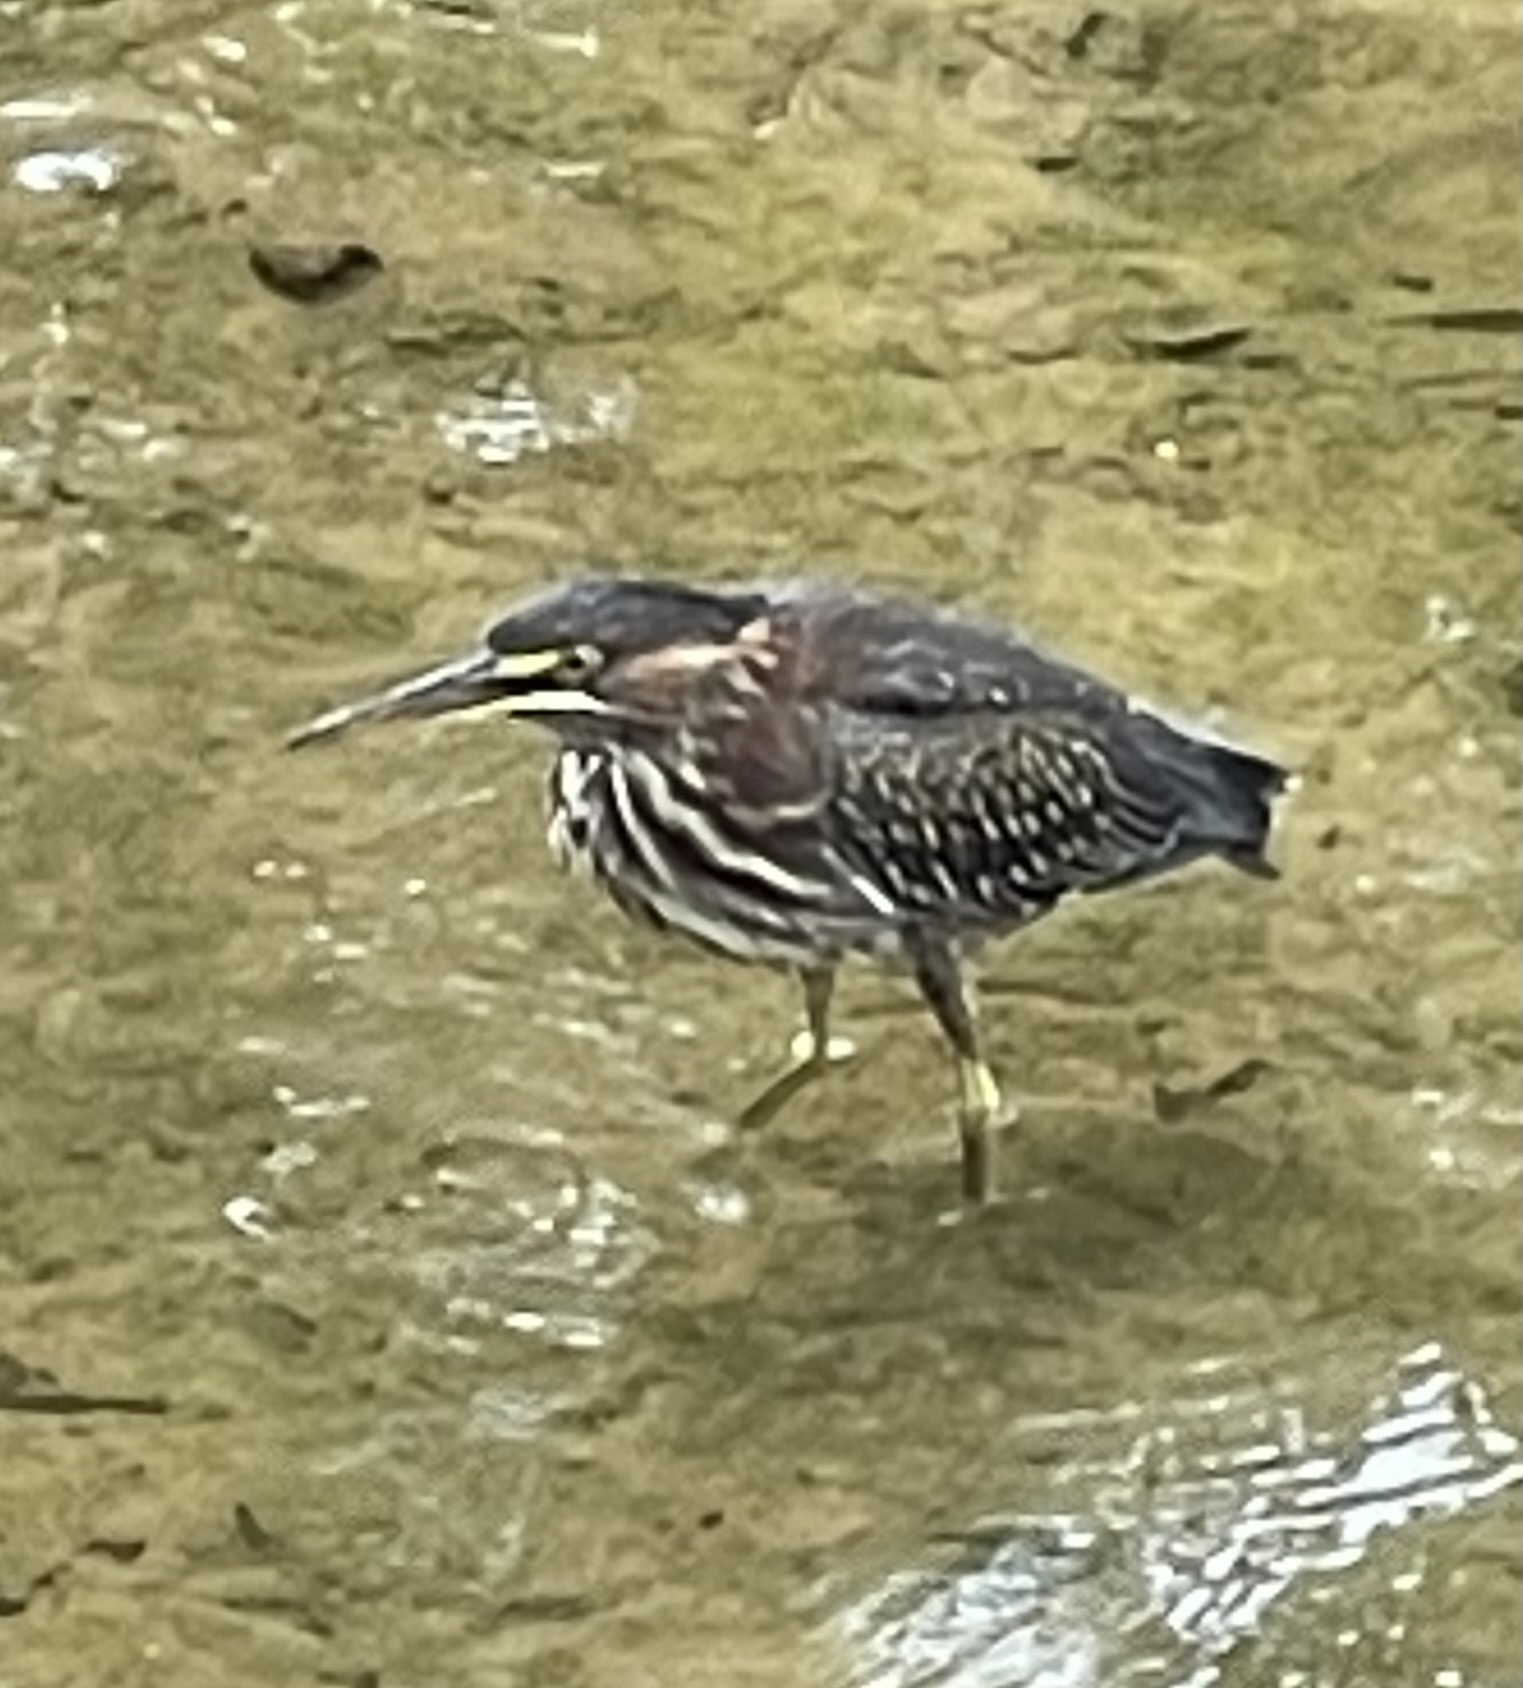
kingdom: Animalia
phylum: Chordata
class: Aves
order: Pelecaniformes
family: Ardeidae
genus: Butorides
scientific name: Butorides virescens
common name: Green heron
